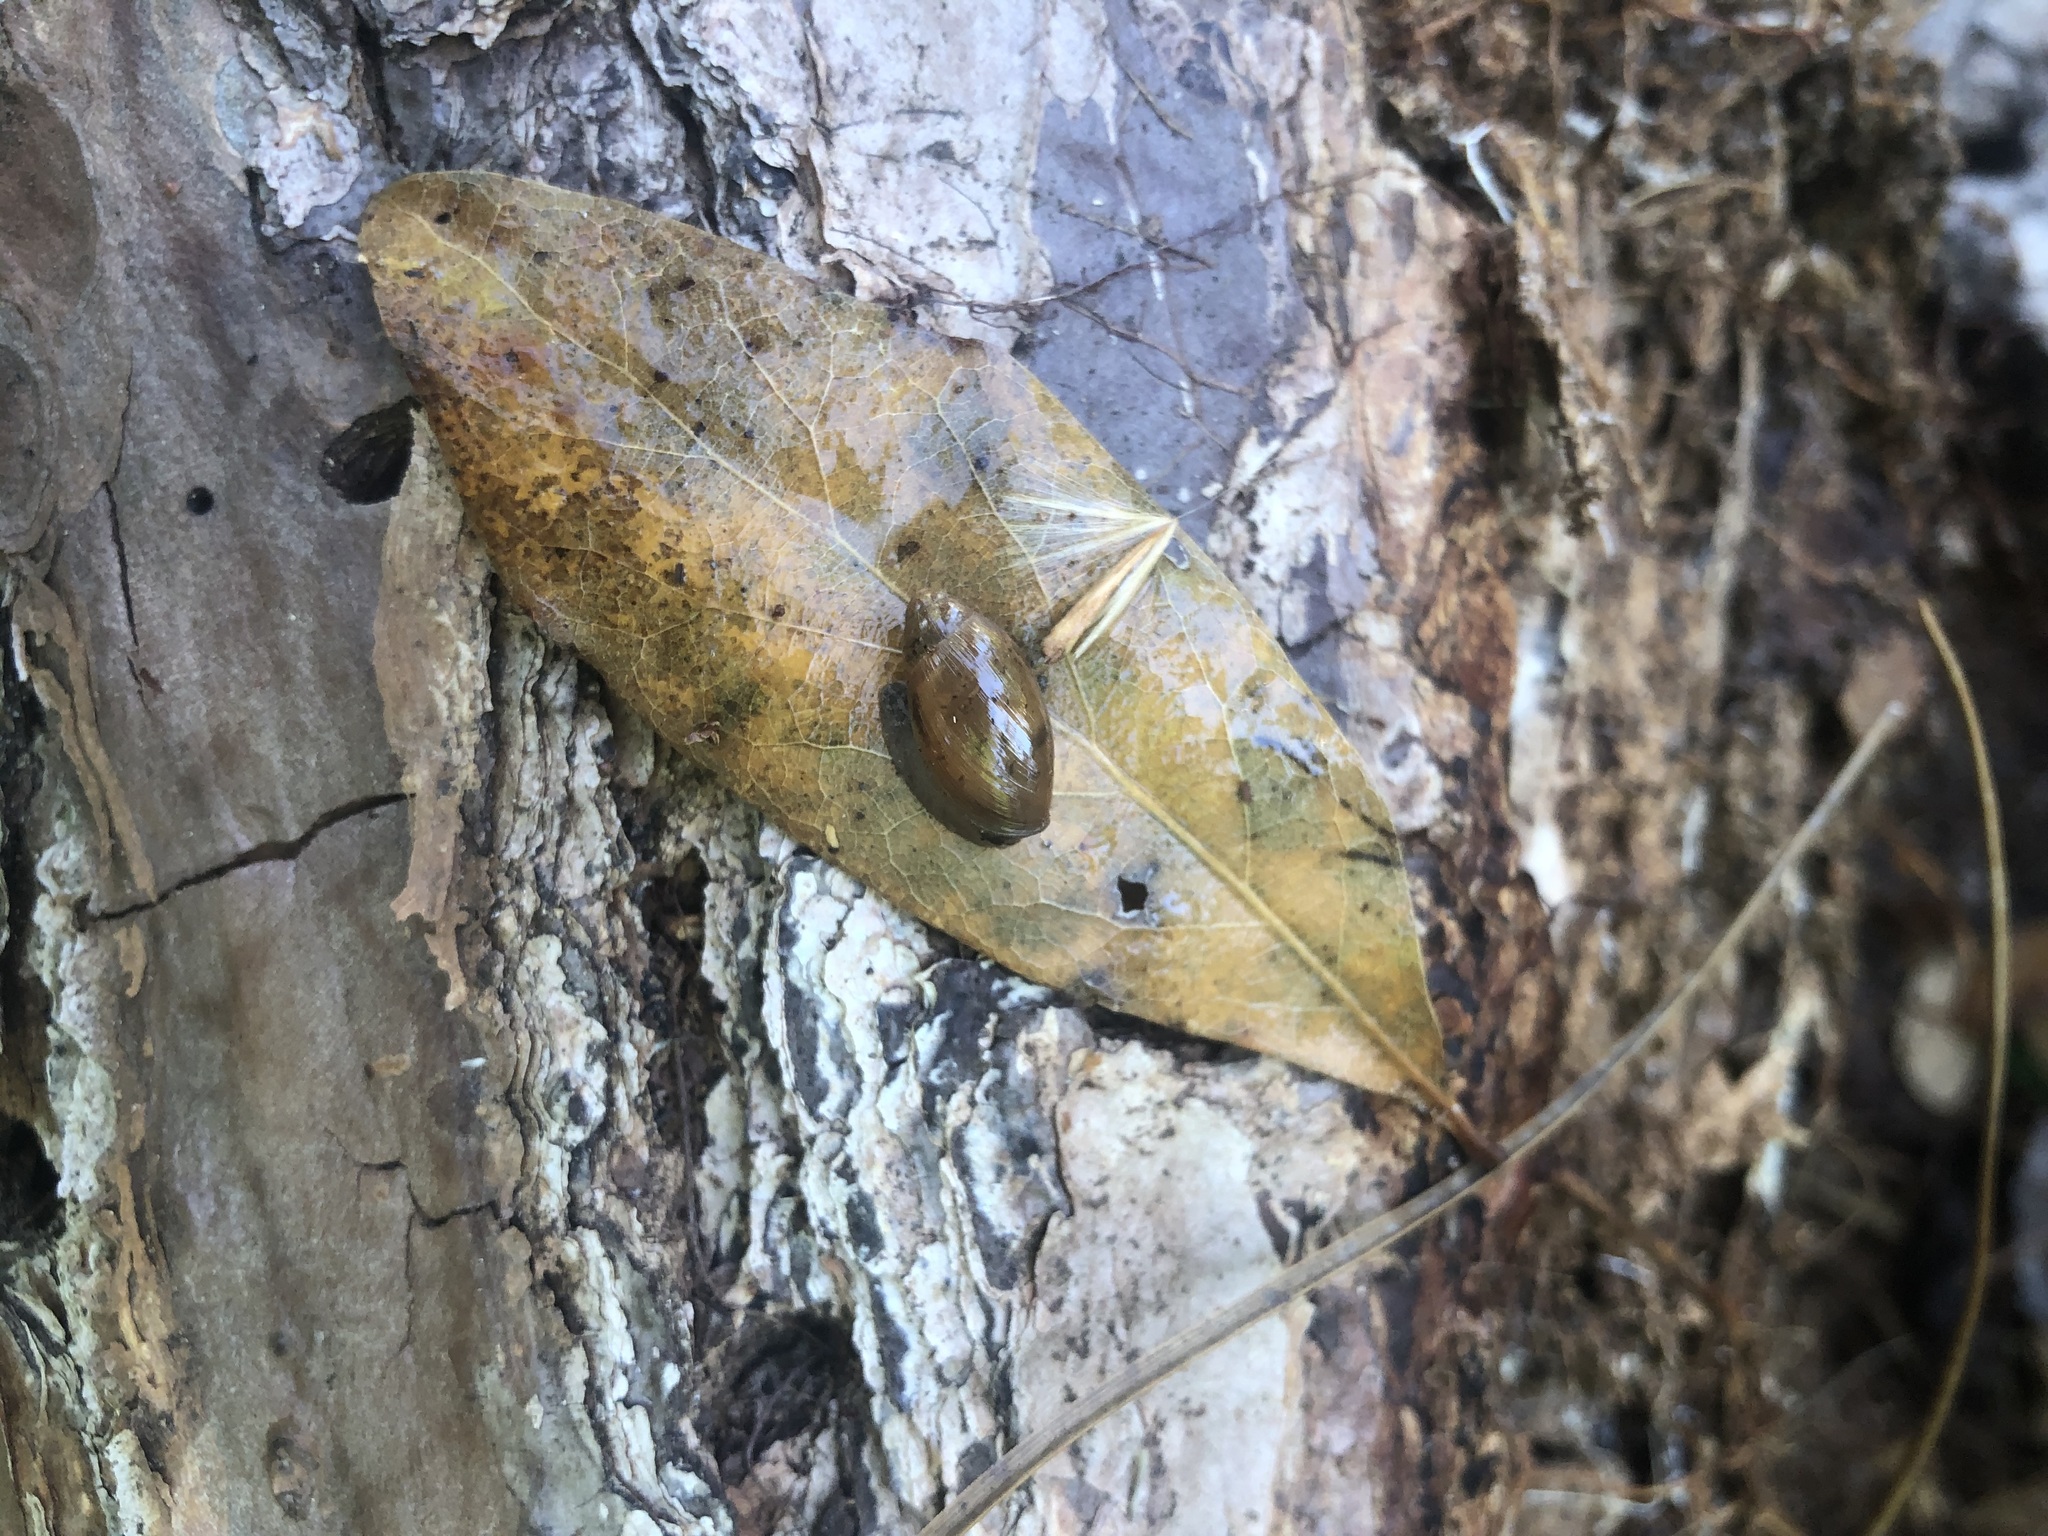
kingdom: Animalia
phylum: Mollusca
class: Gastropoda
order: Stylommatophora
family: Spiraxidae
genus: Euglandina
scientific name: Euglandina rosea
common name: Rosy wolfsnail
